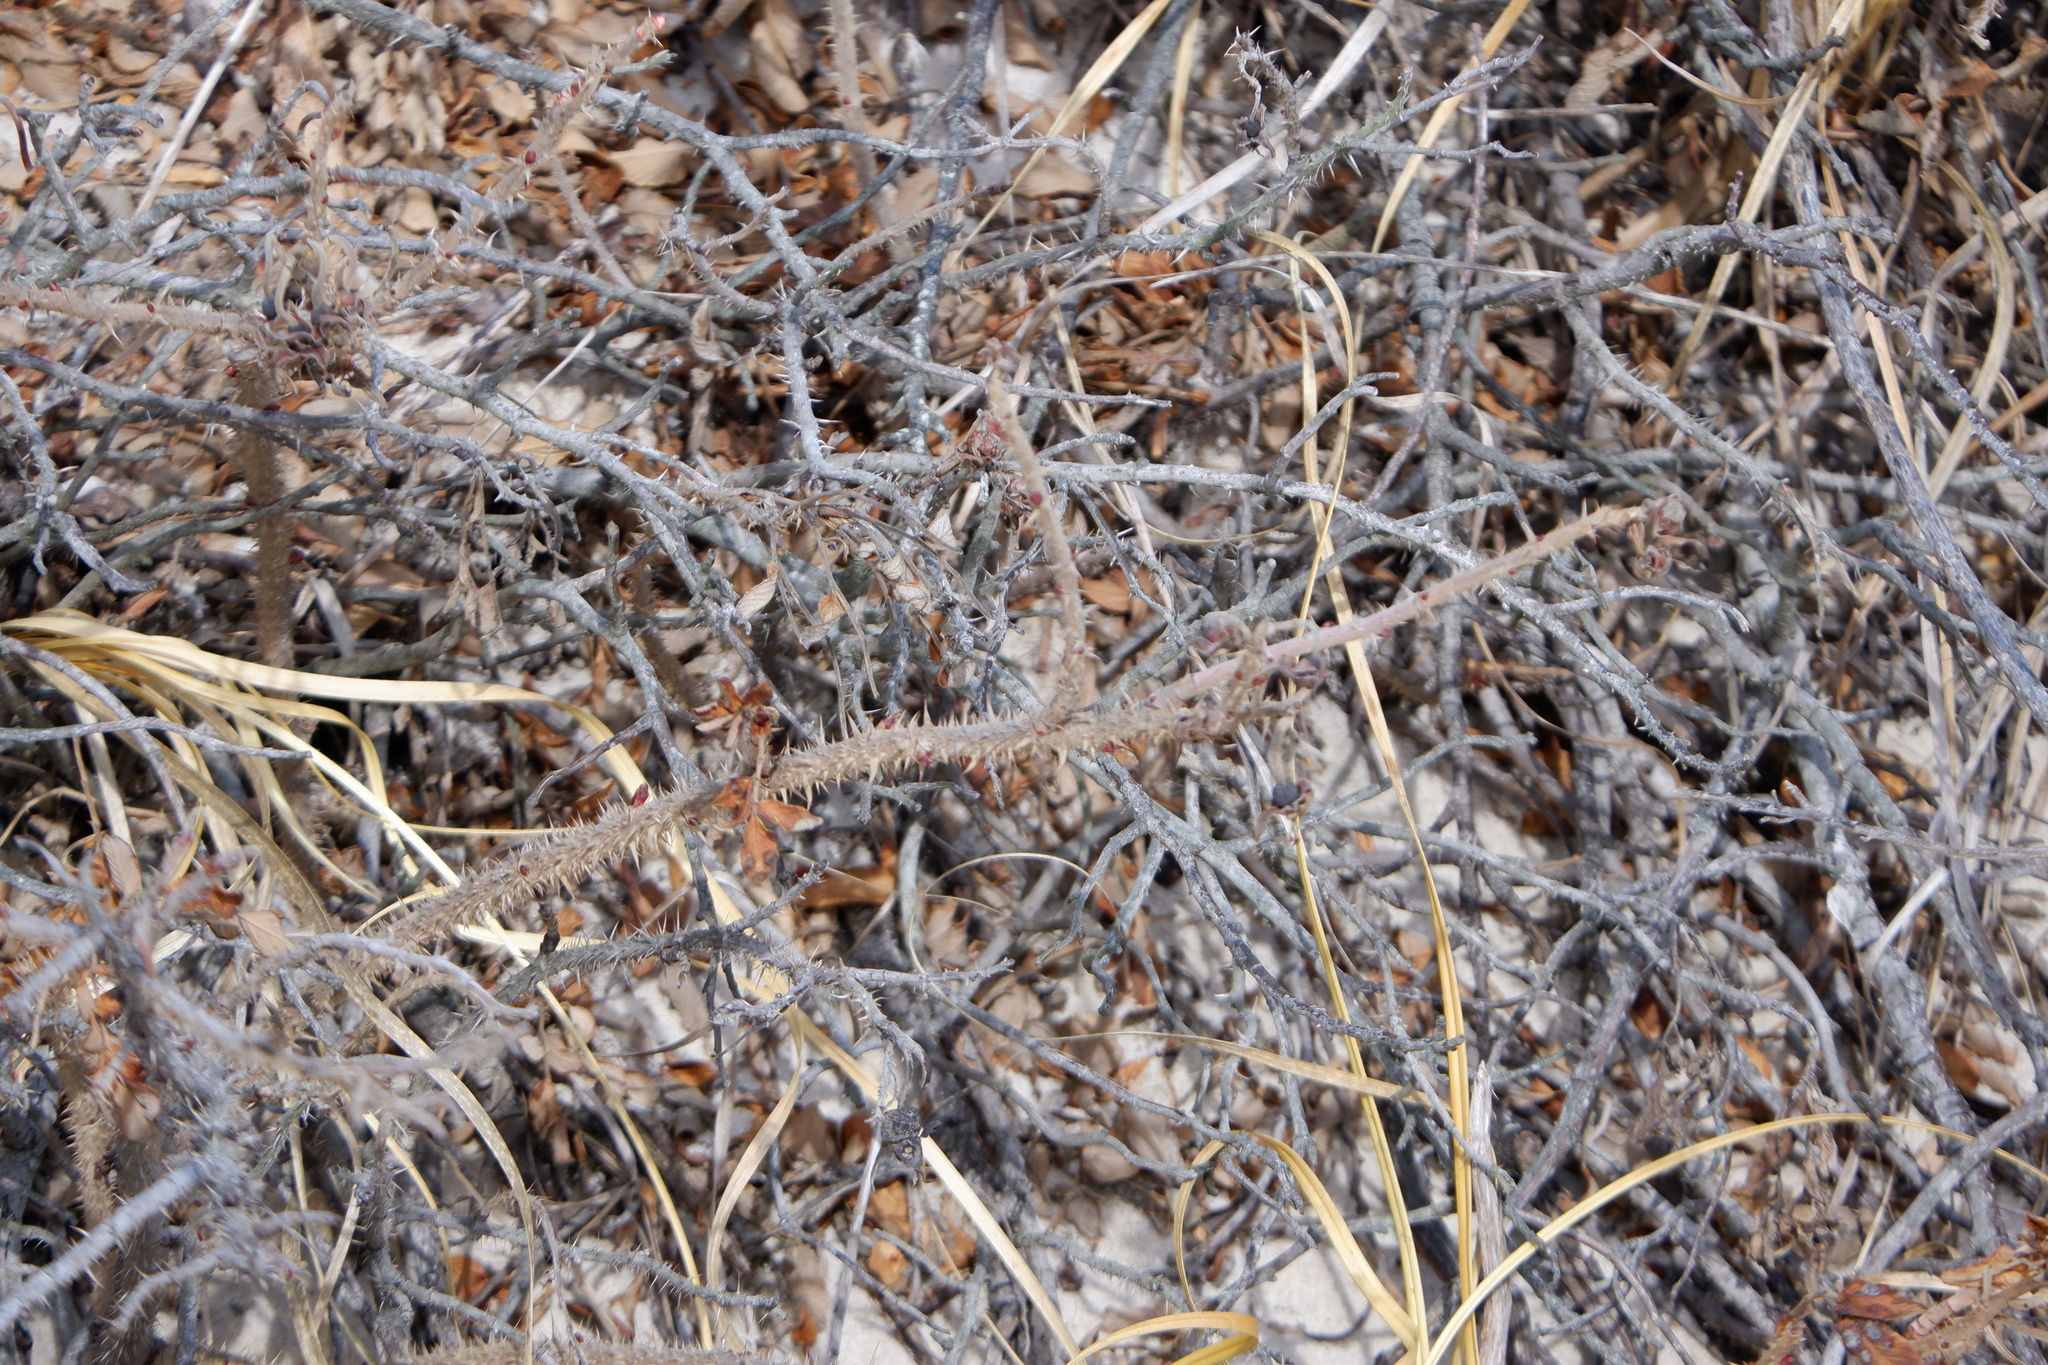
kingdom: Plantae
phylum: Tracheophyta
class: Magnoliopsida
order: Rosales
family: Rosaceae
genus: Rosa
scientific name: Rosa rugosa
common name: Japanese rose
